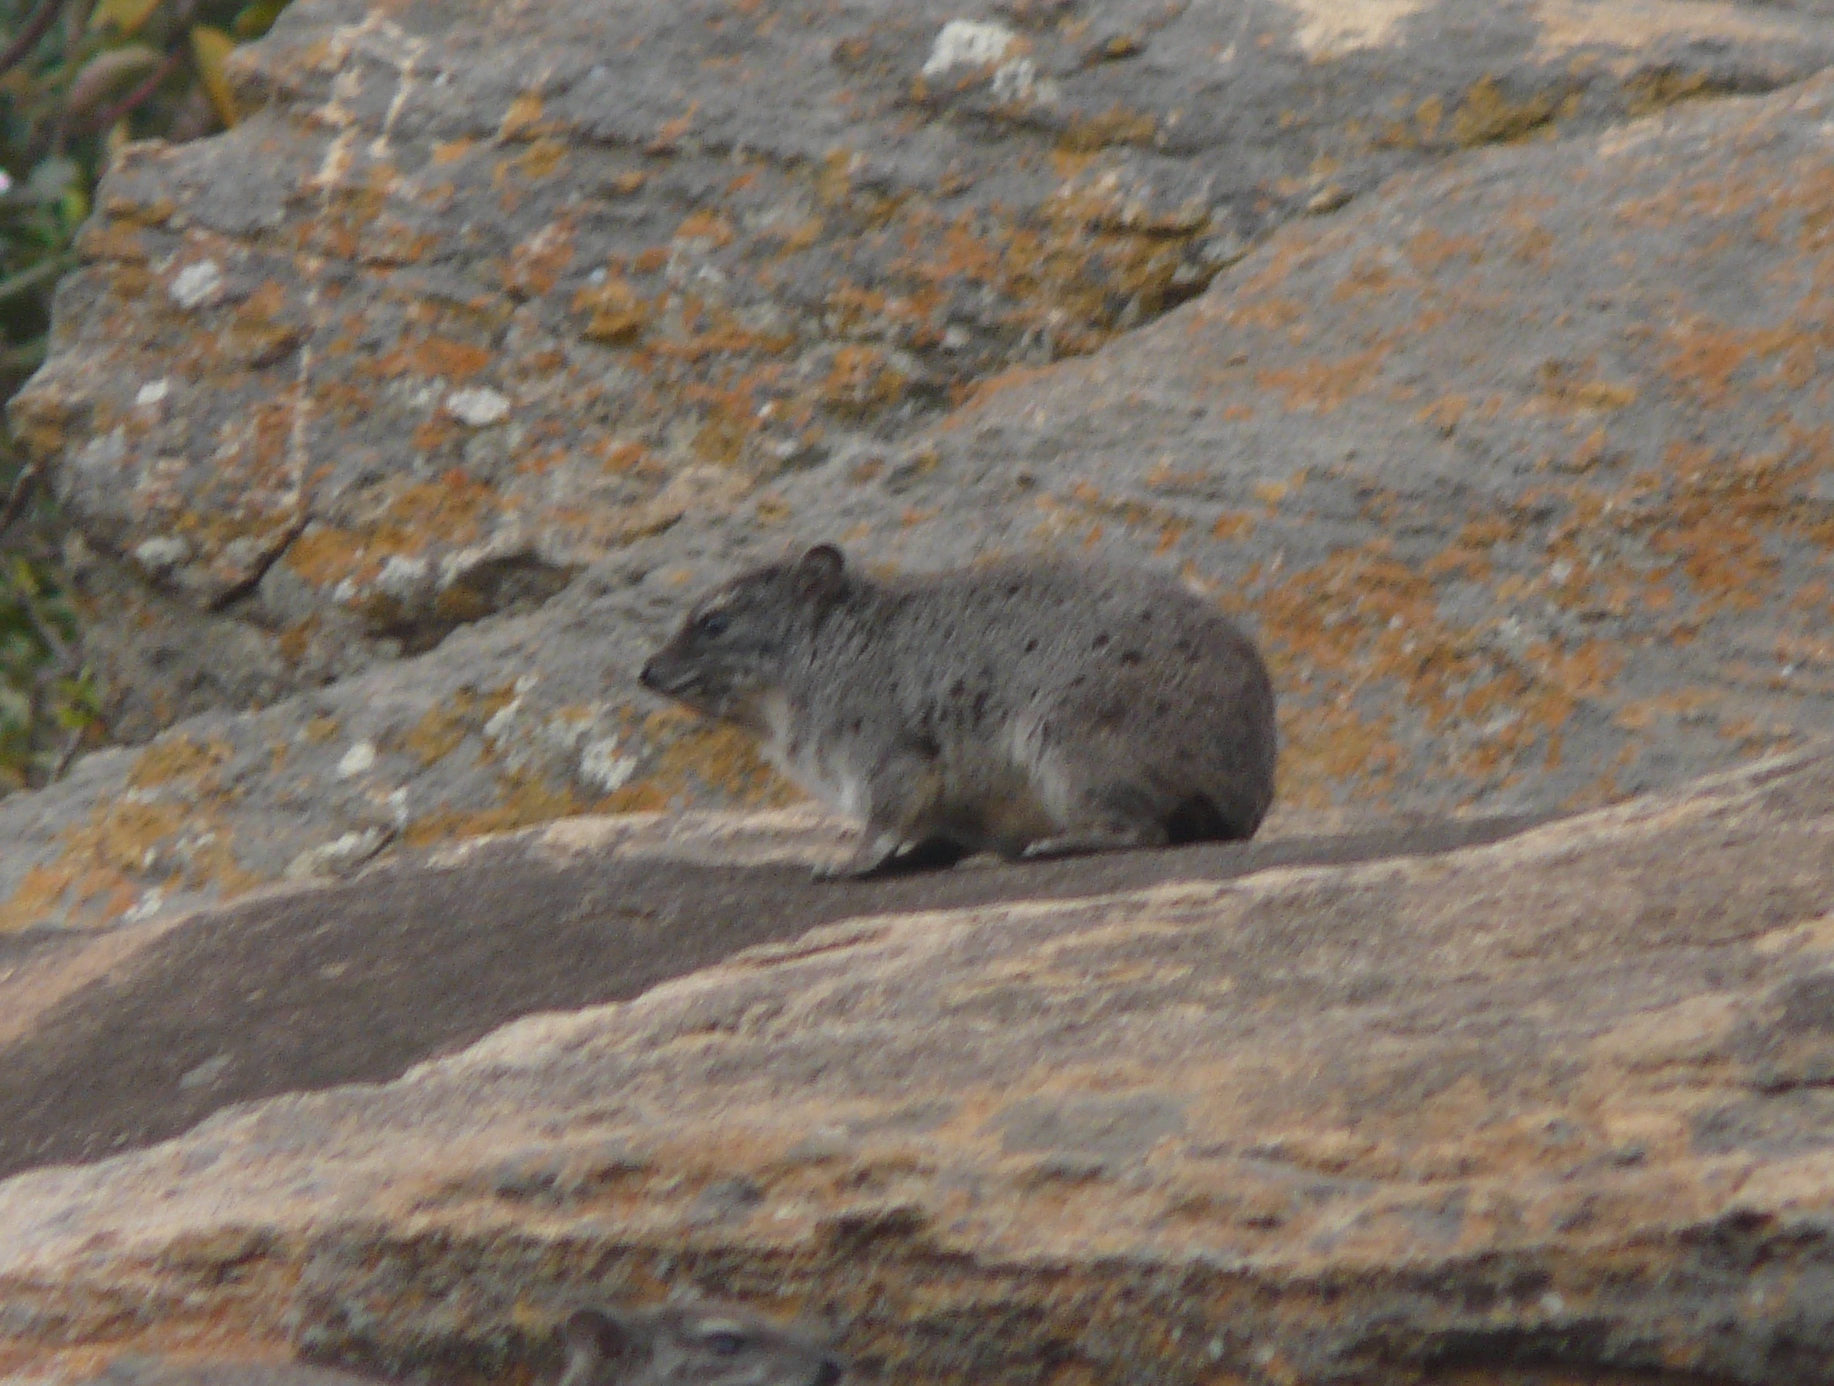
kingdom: Animalia
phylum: Chordata
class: Mammalia
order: Hyracoidea
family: Procaviidae
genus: Heterohyrax
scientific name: Heterohyrax brucei
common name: Bush hyrax
